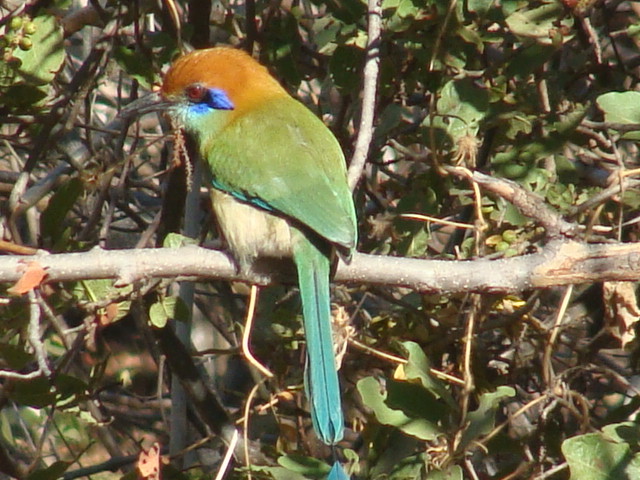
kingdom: Animalia
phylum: Chordata
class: Aves
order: Coraciiformes
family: Momotidae
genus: Momotus
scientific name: Momotus mexicanus
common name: Russet-crowned motmot
